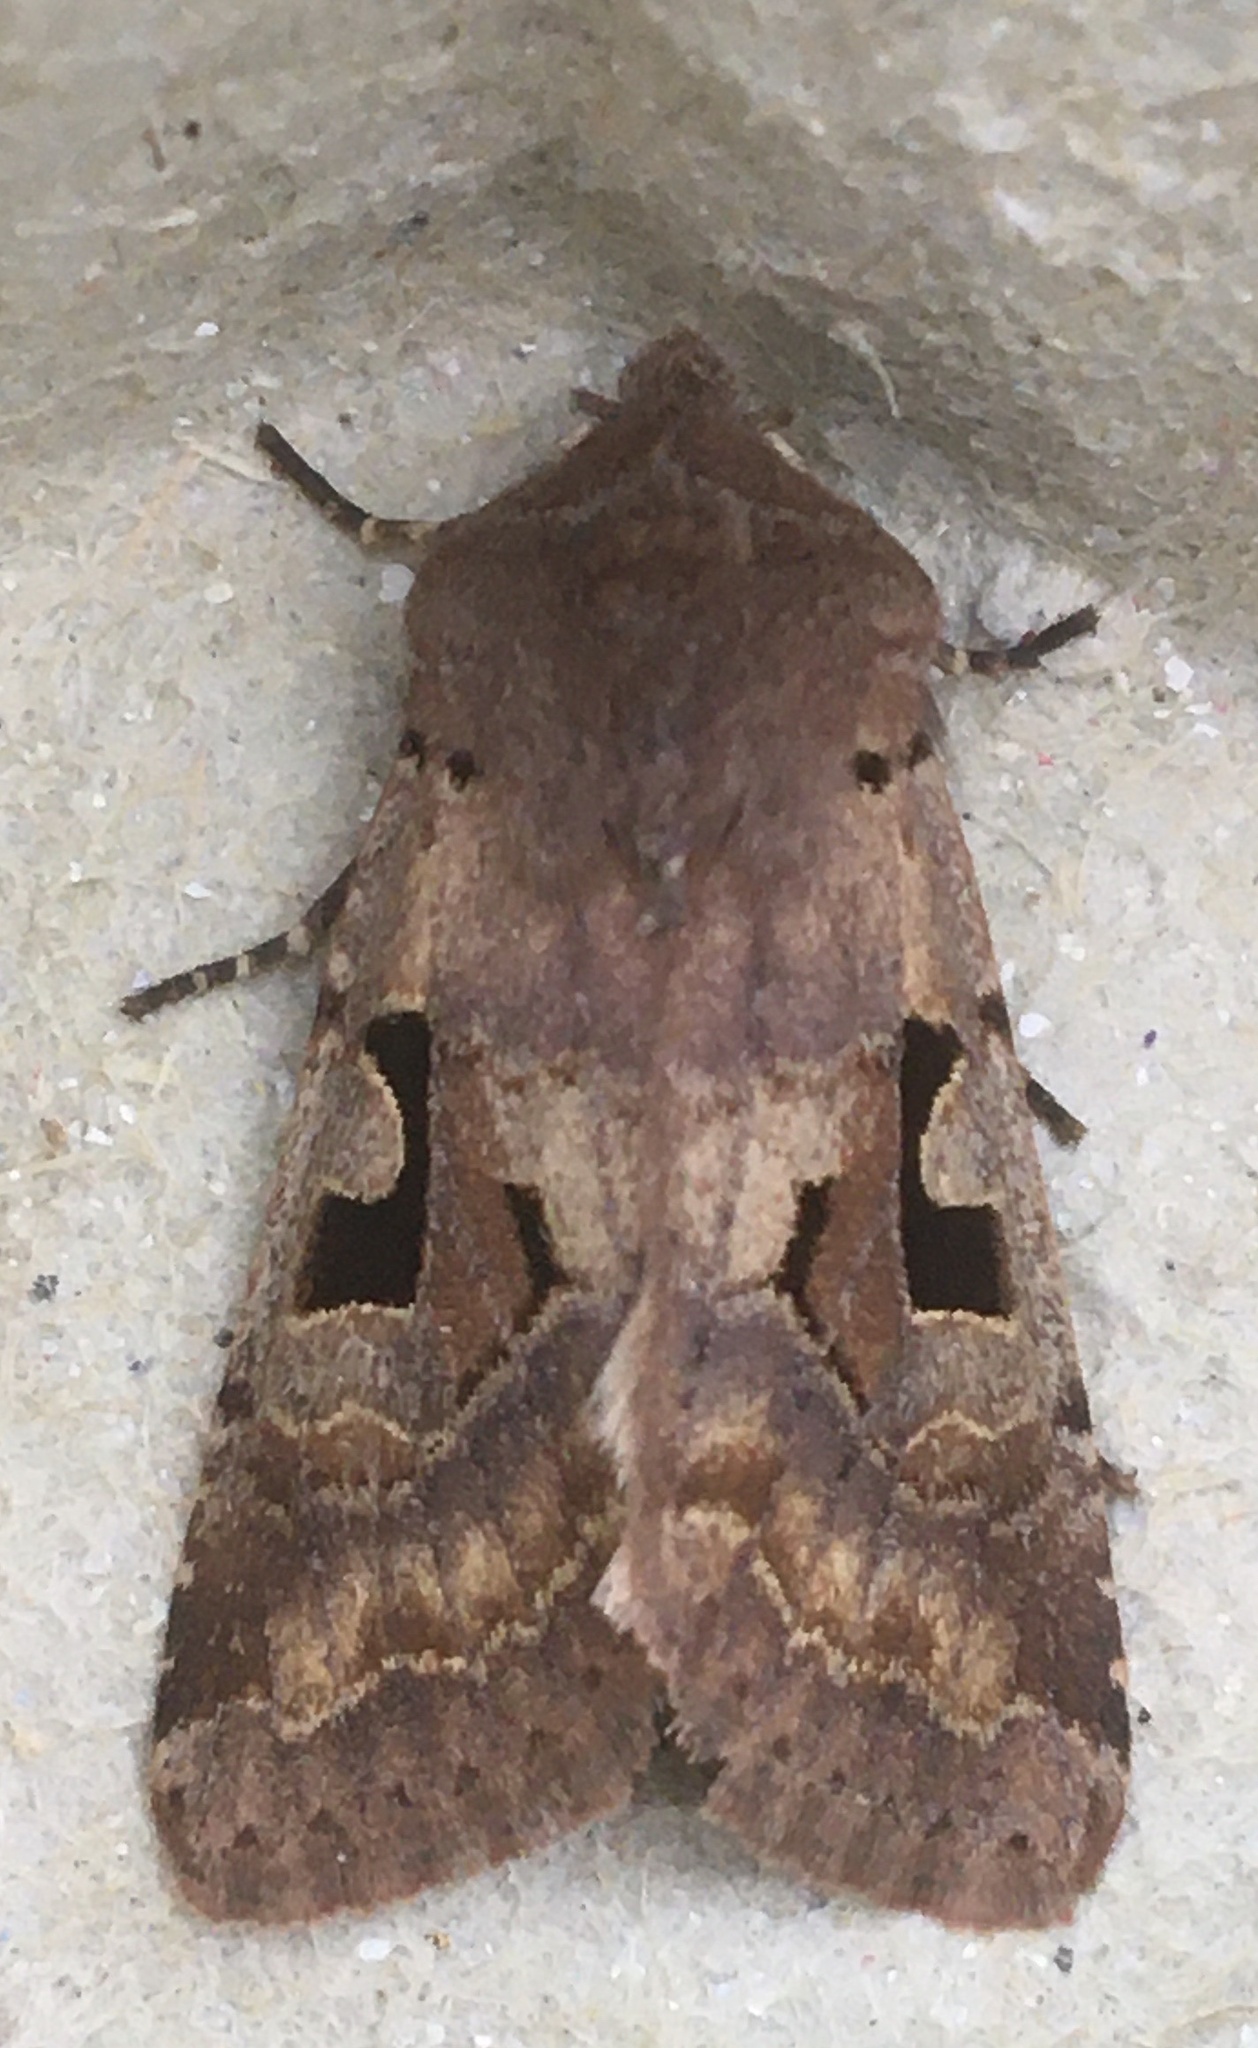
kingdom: Animalia
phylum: Arthropoda
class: Insecta
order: Lepidoptera
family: Noctuidae
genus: Orthosia
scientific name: Orthosia gothica
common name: Hebrew character
